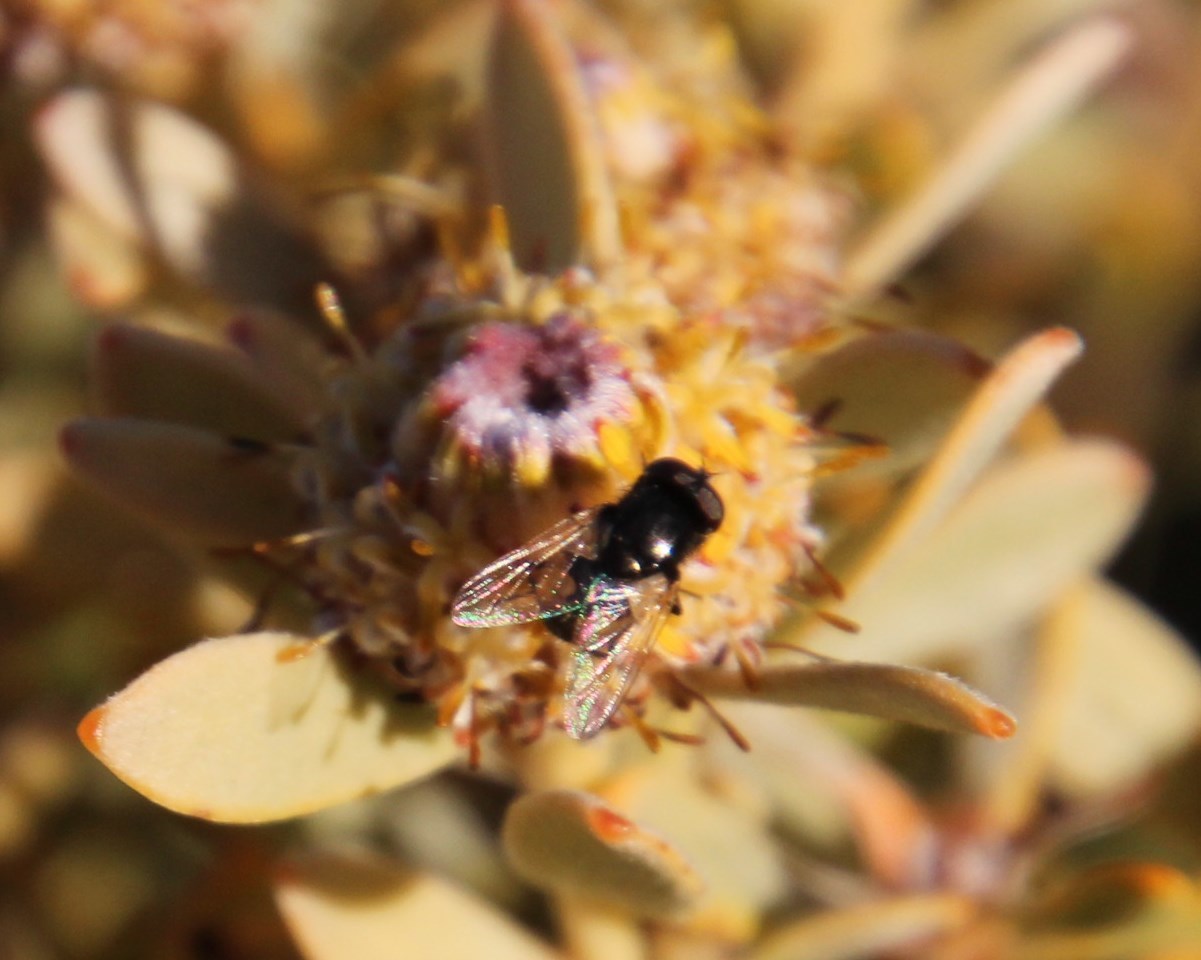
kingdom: Plantae
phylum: Tracheophyta
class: Magnoliopsida
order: Proteales
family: Proteaceae
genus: Leucadendron
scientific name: Leucadendron pubescens
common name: Grey conebush
